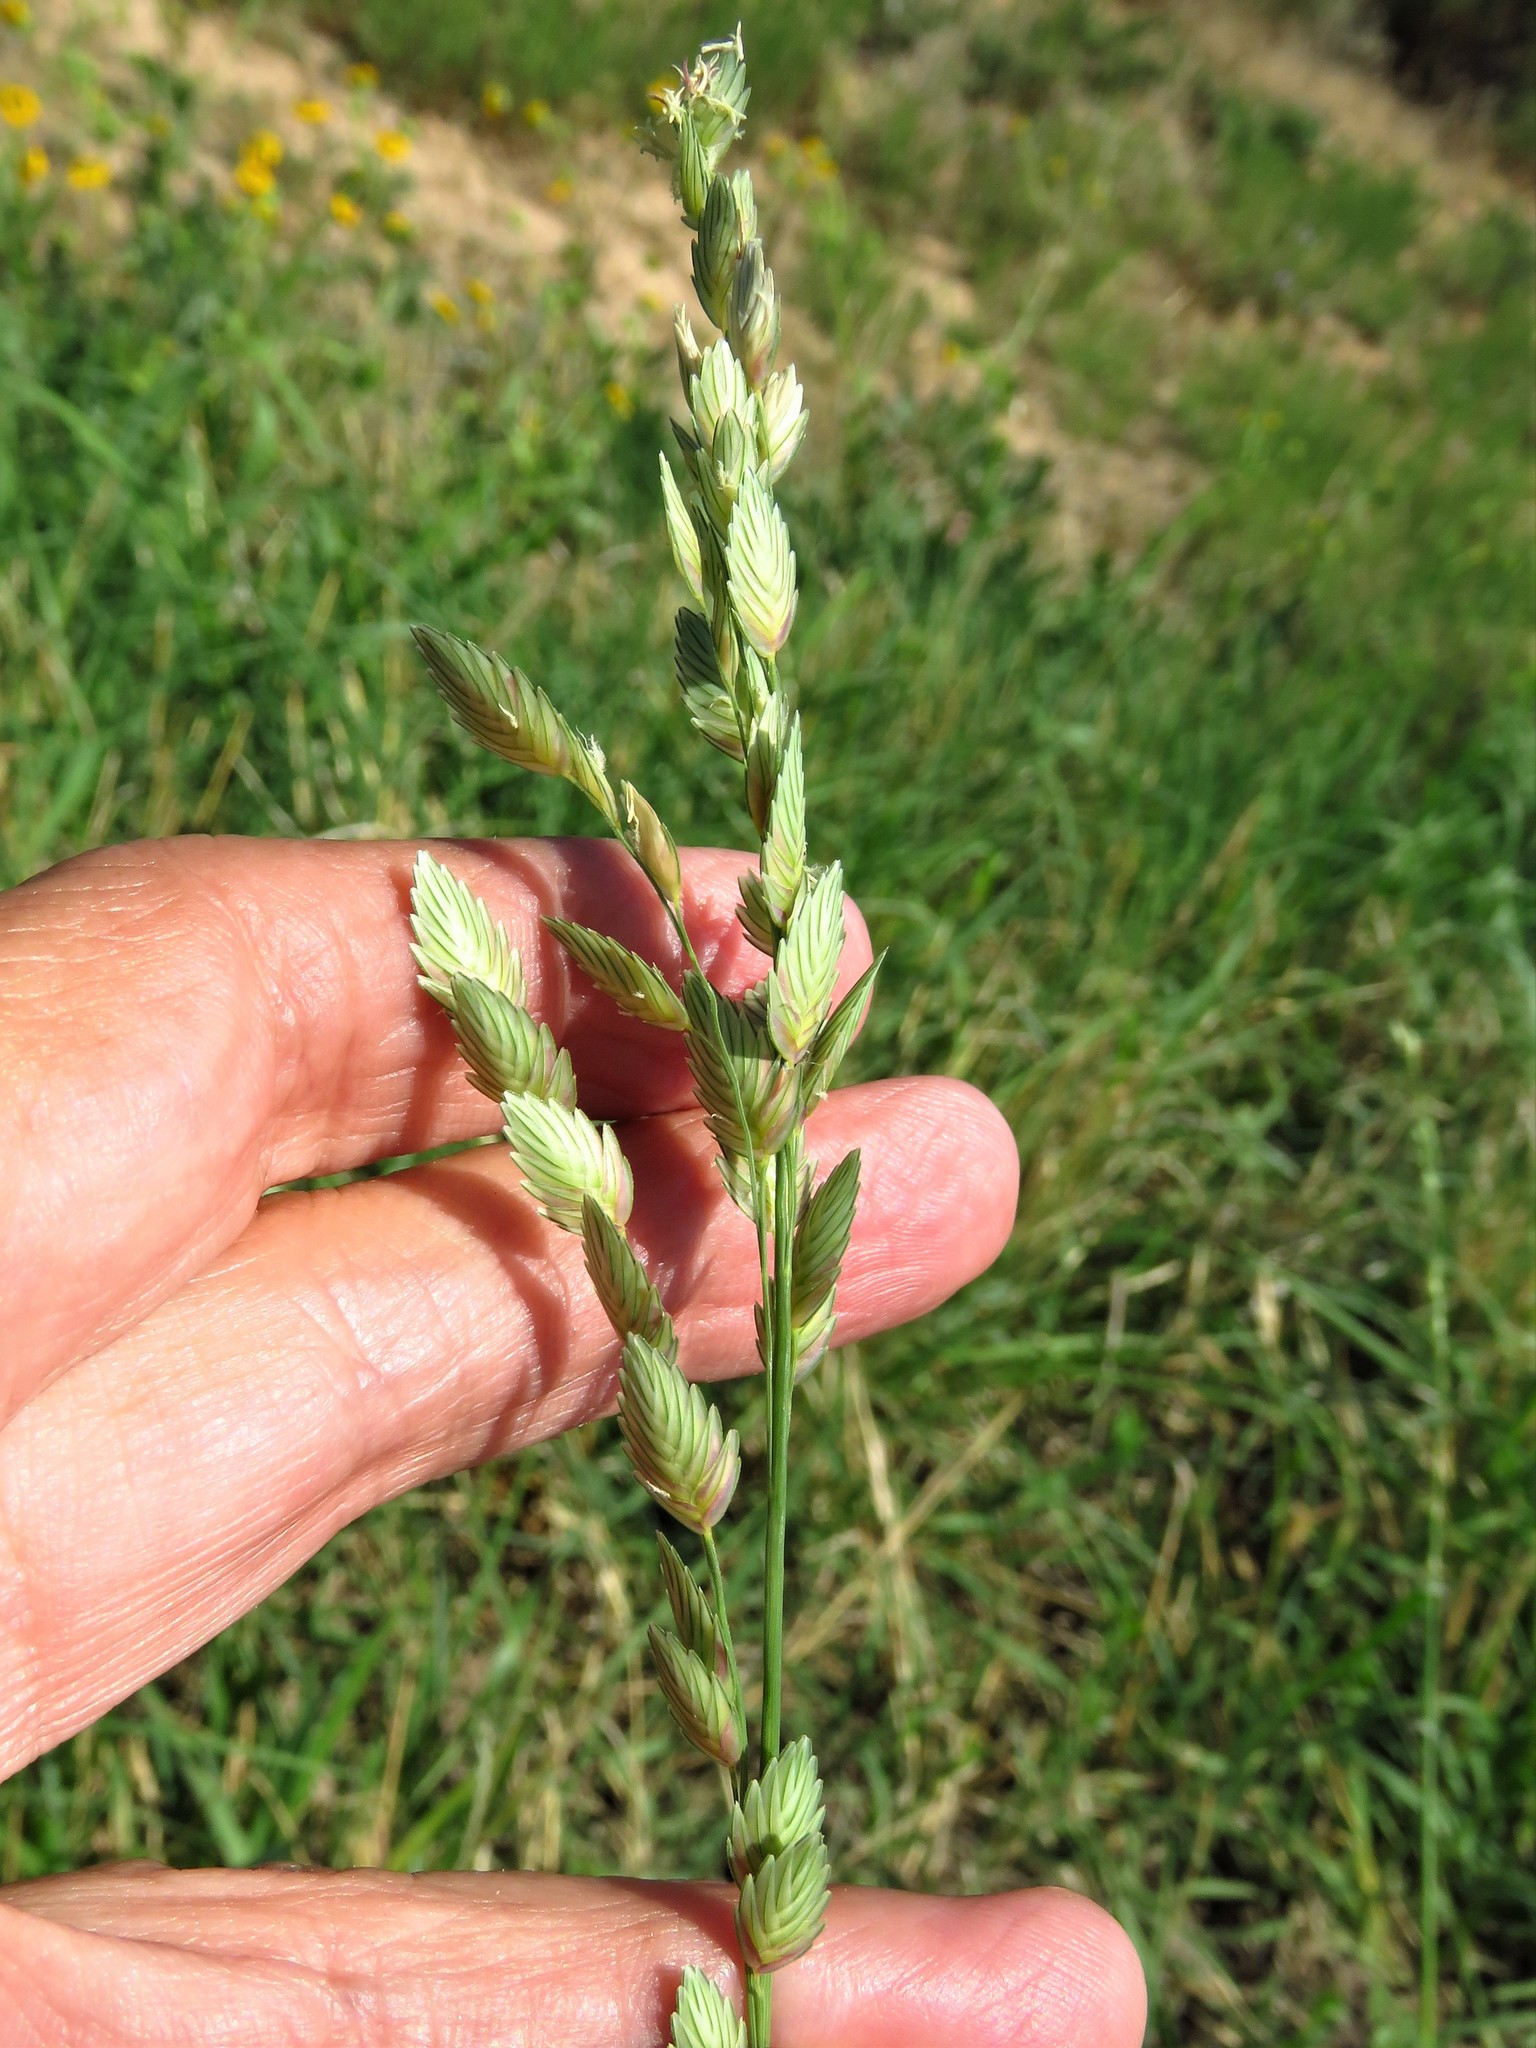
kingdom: Plantae
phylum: Tracheophyta
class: Liliopsida
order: Poales
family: Poaceae
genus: Eragrostis
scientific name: Eragrostis superba
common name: Wilman lovegrass
